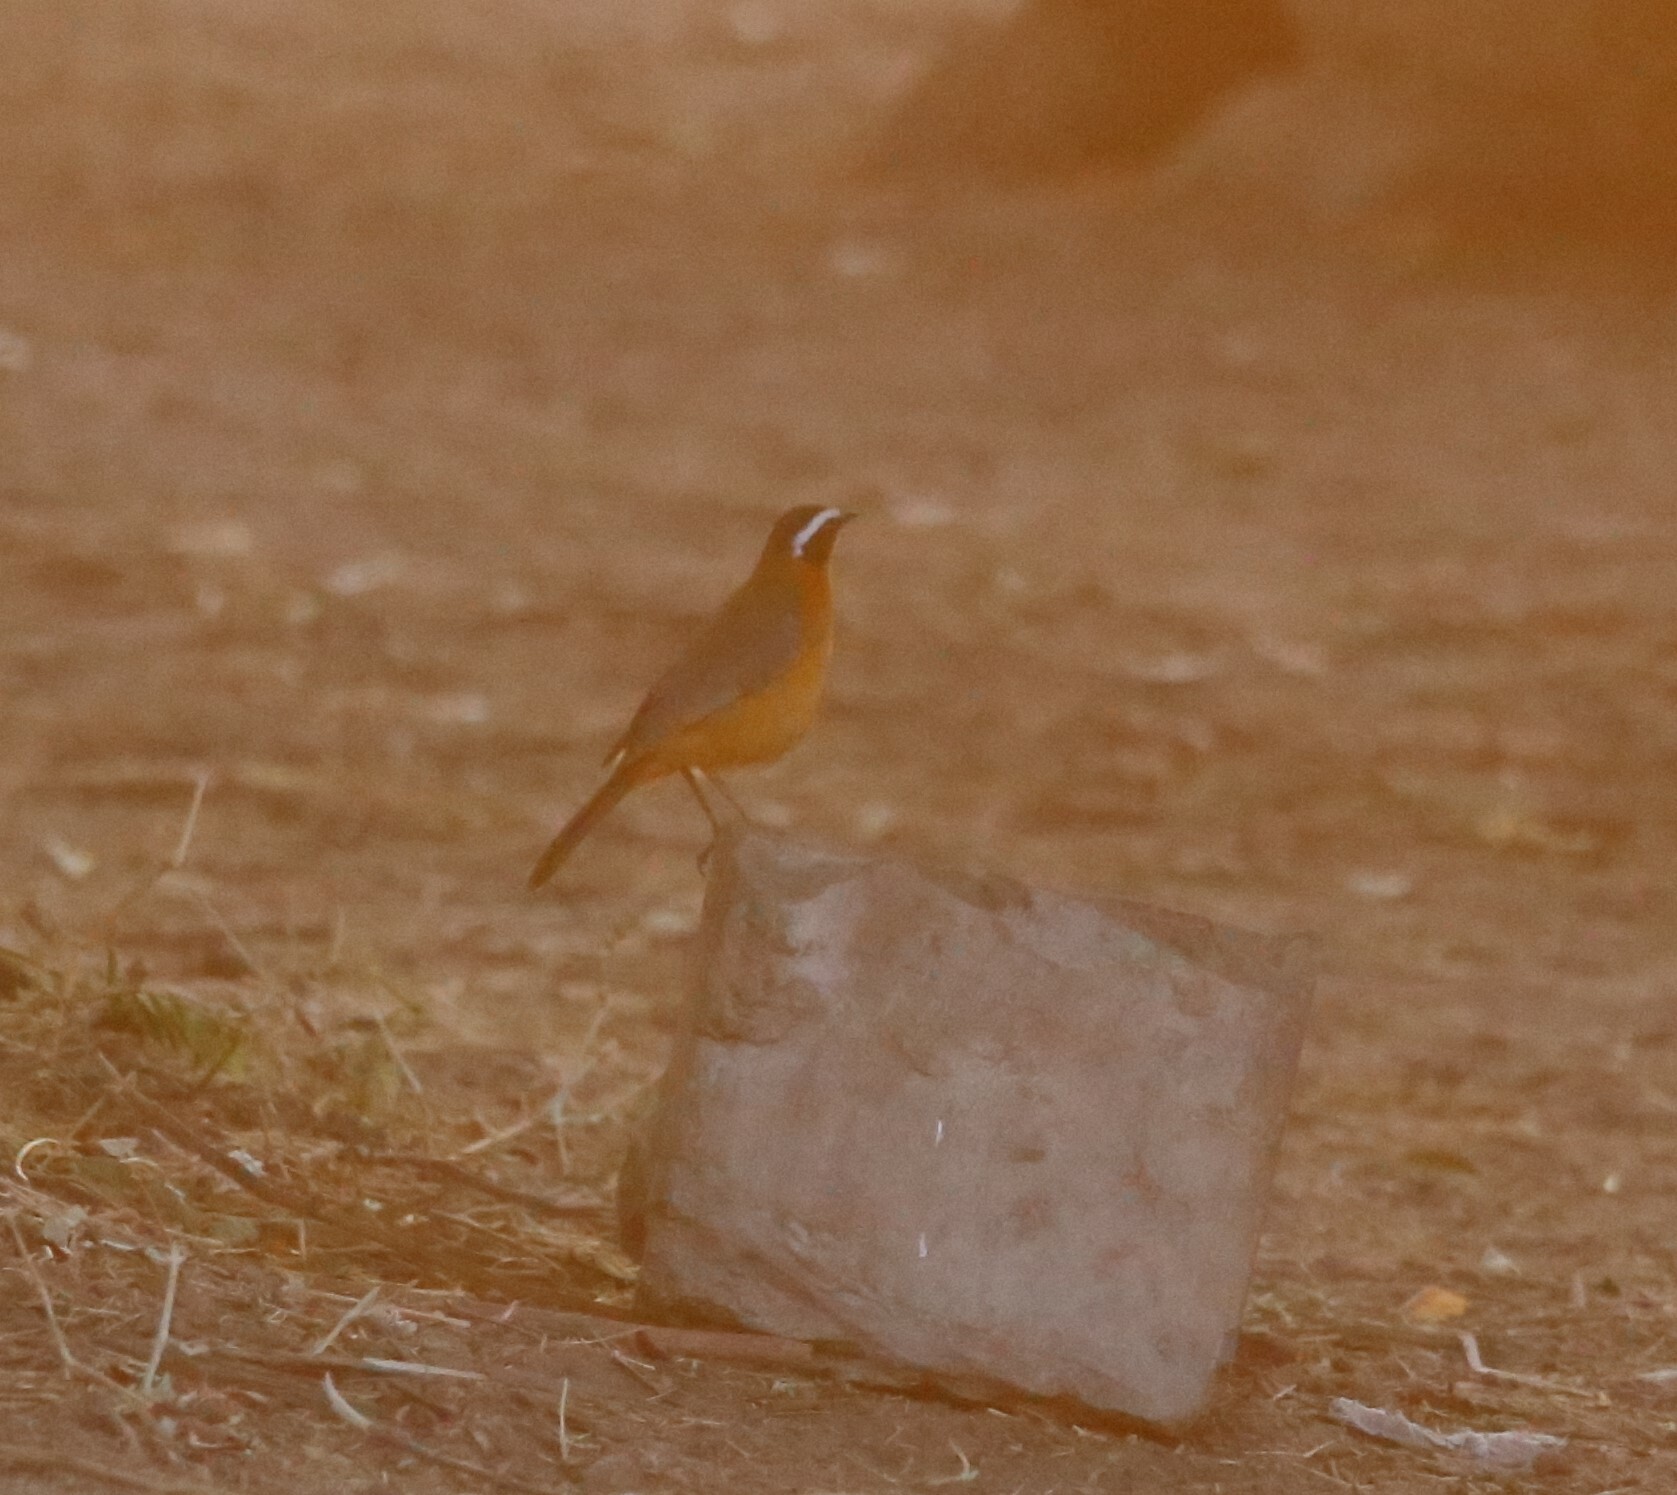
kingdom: Animalia
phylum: Chordata
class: Aves
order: Passeriformes
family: Muscicapidae
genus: Cossypha
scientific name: Cossypha heuglini
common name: White-browed robin-chat
